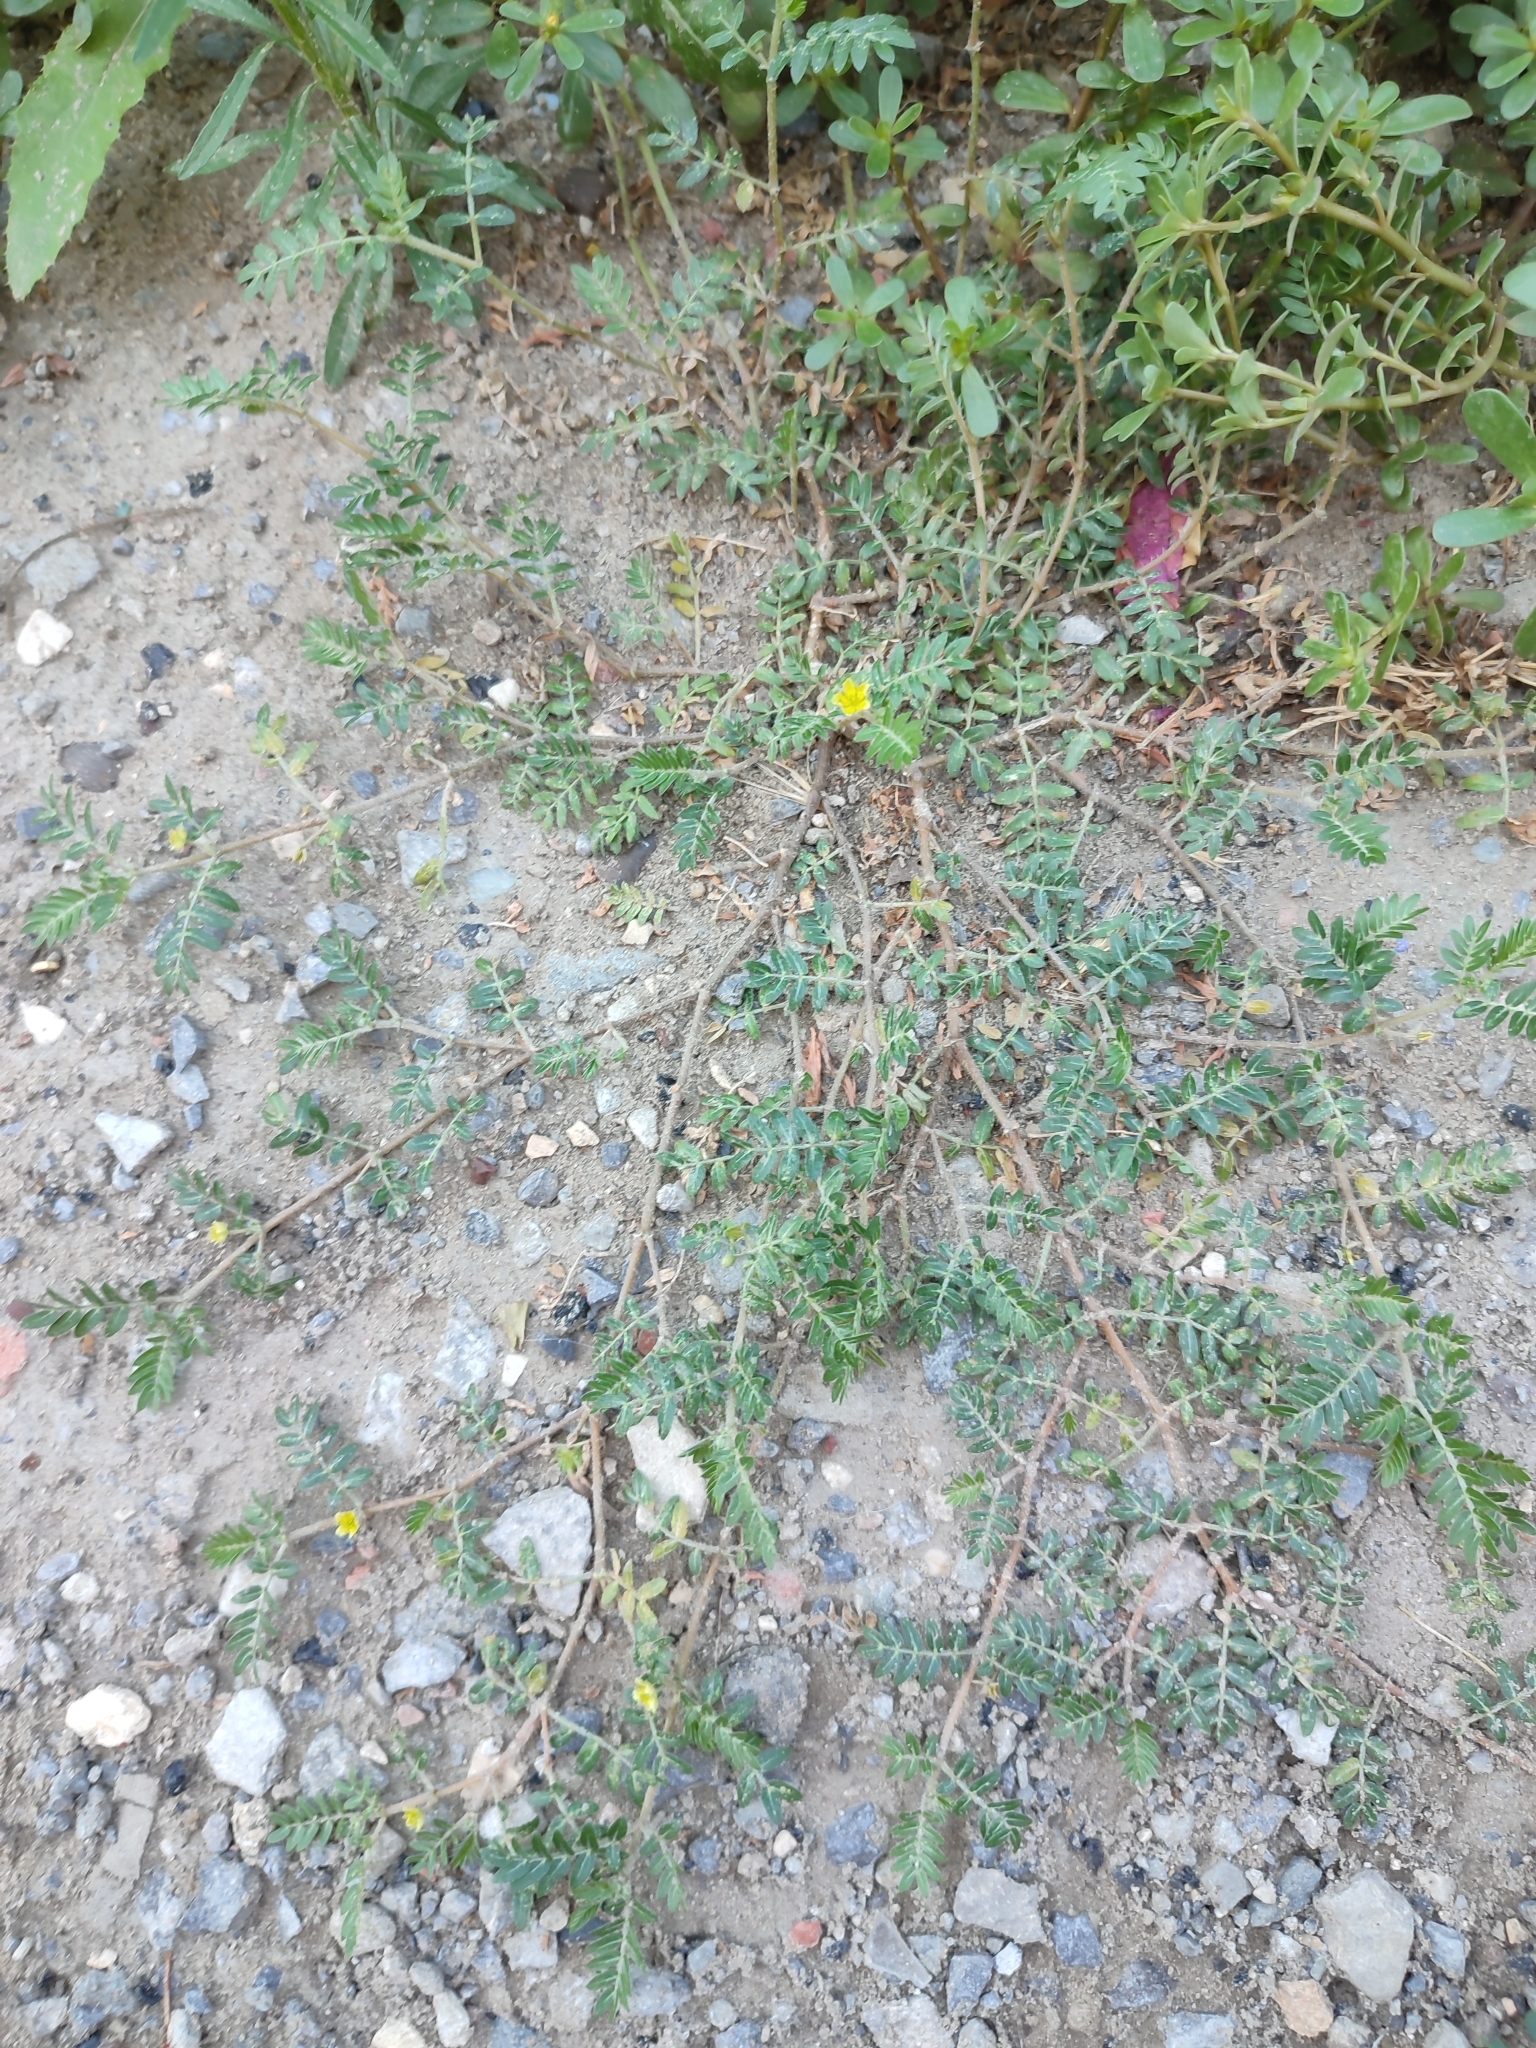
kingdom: Plantae
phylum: Tracheophyta
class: Magnoliopsida
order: Zygophyllales
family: Zygophyllaceae
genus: Tribulus
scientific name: Tribulus terrestris
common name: Puncturevine
